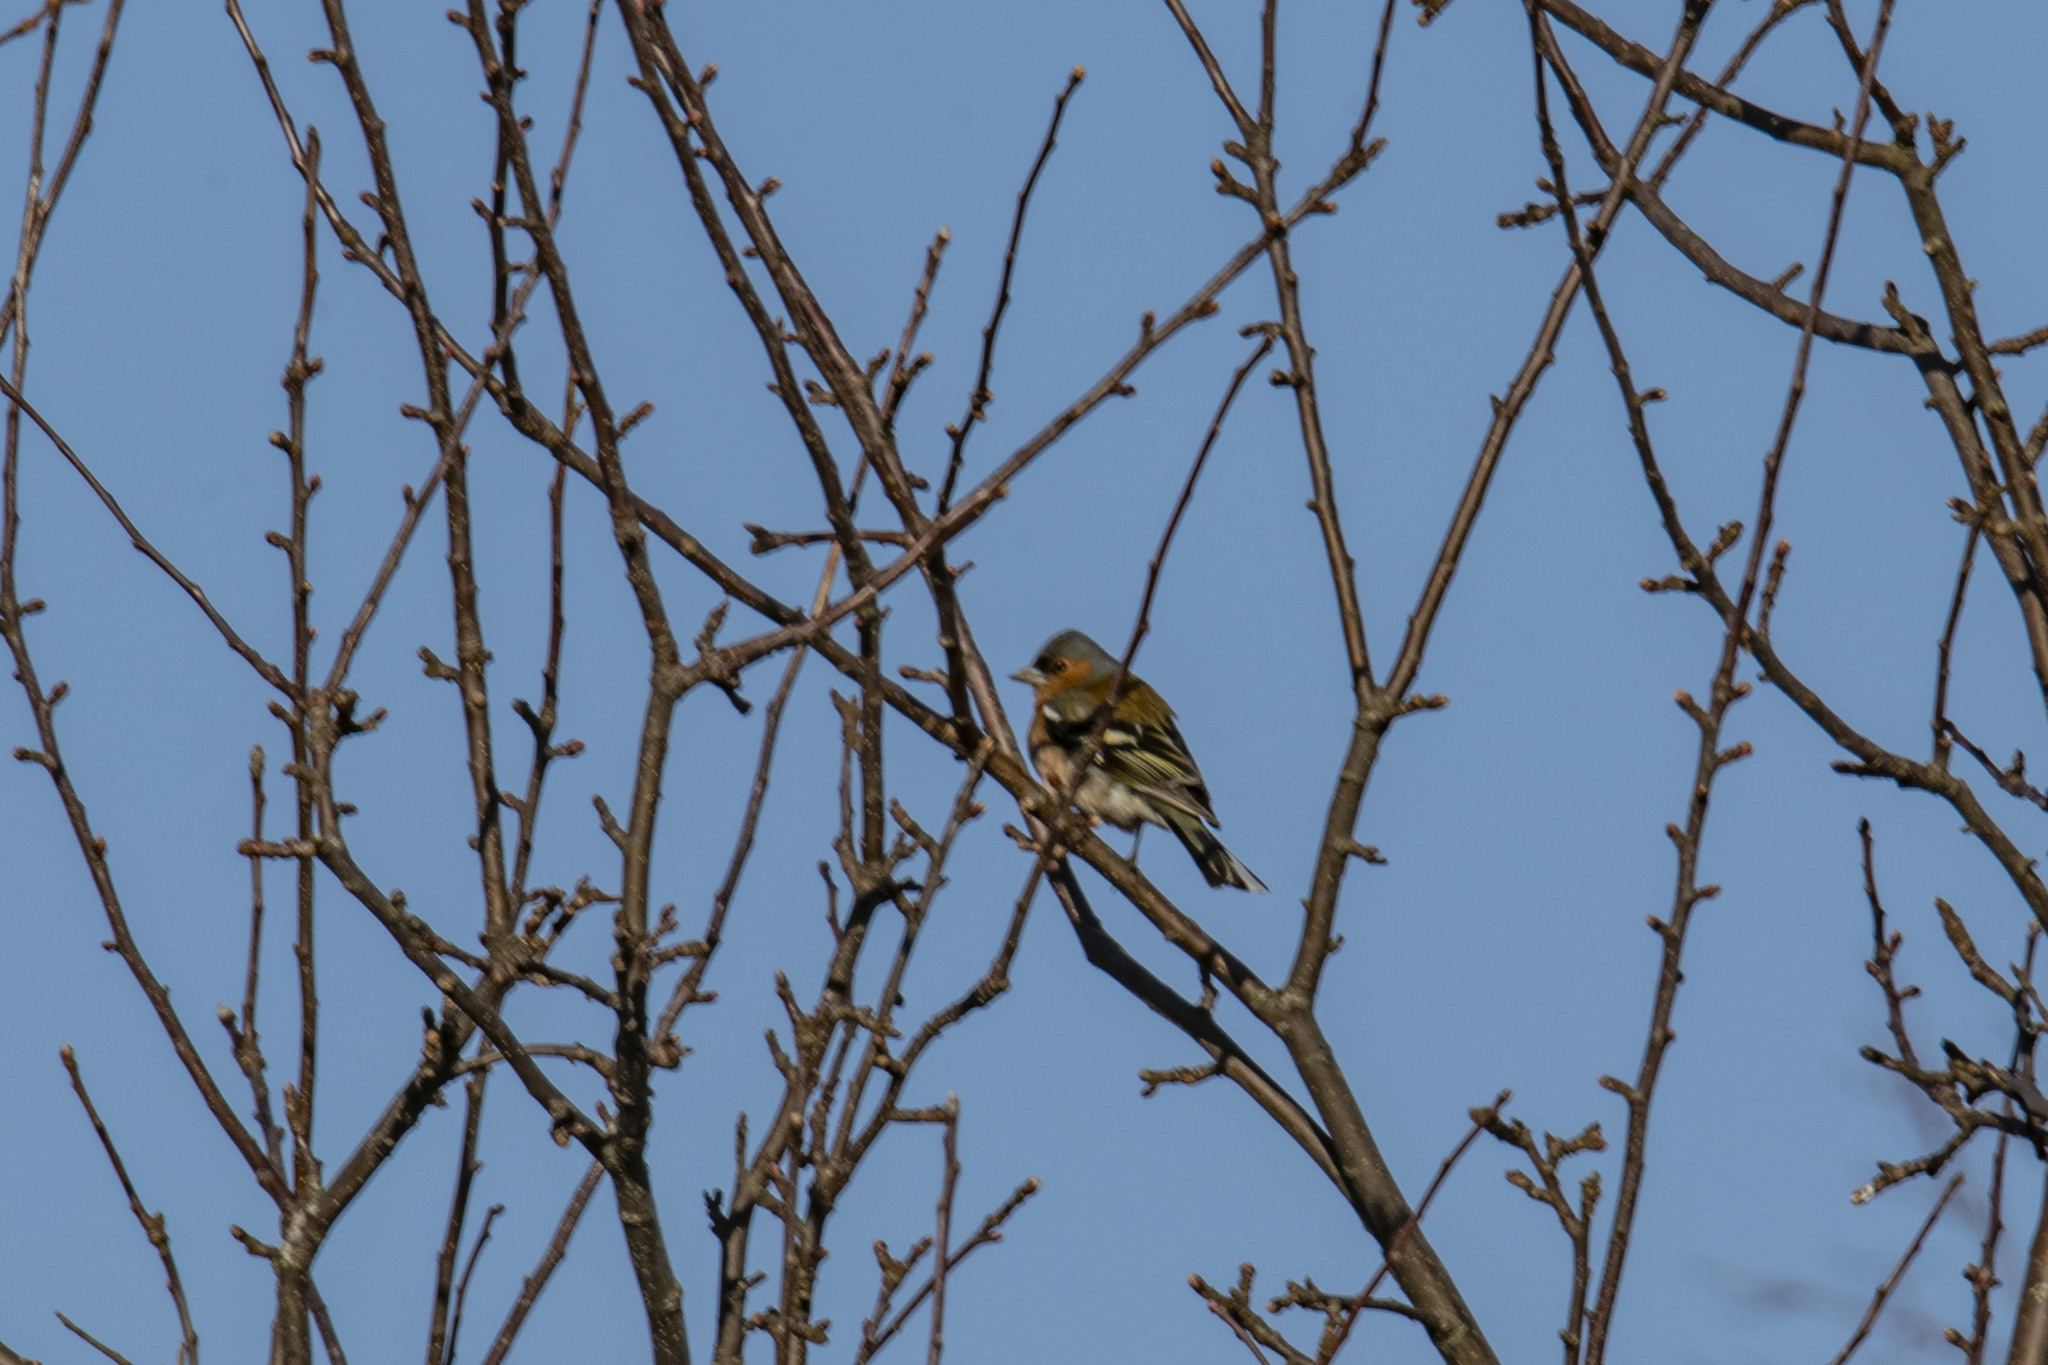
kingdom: Animalia
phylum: Chordata
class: Aves
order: Passeriformes
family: Fringillidae
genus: Fringilla
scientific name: Fringilla coelebs
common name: Common chaffinch
